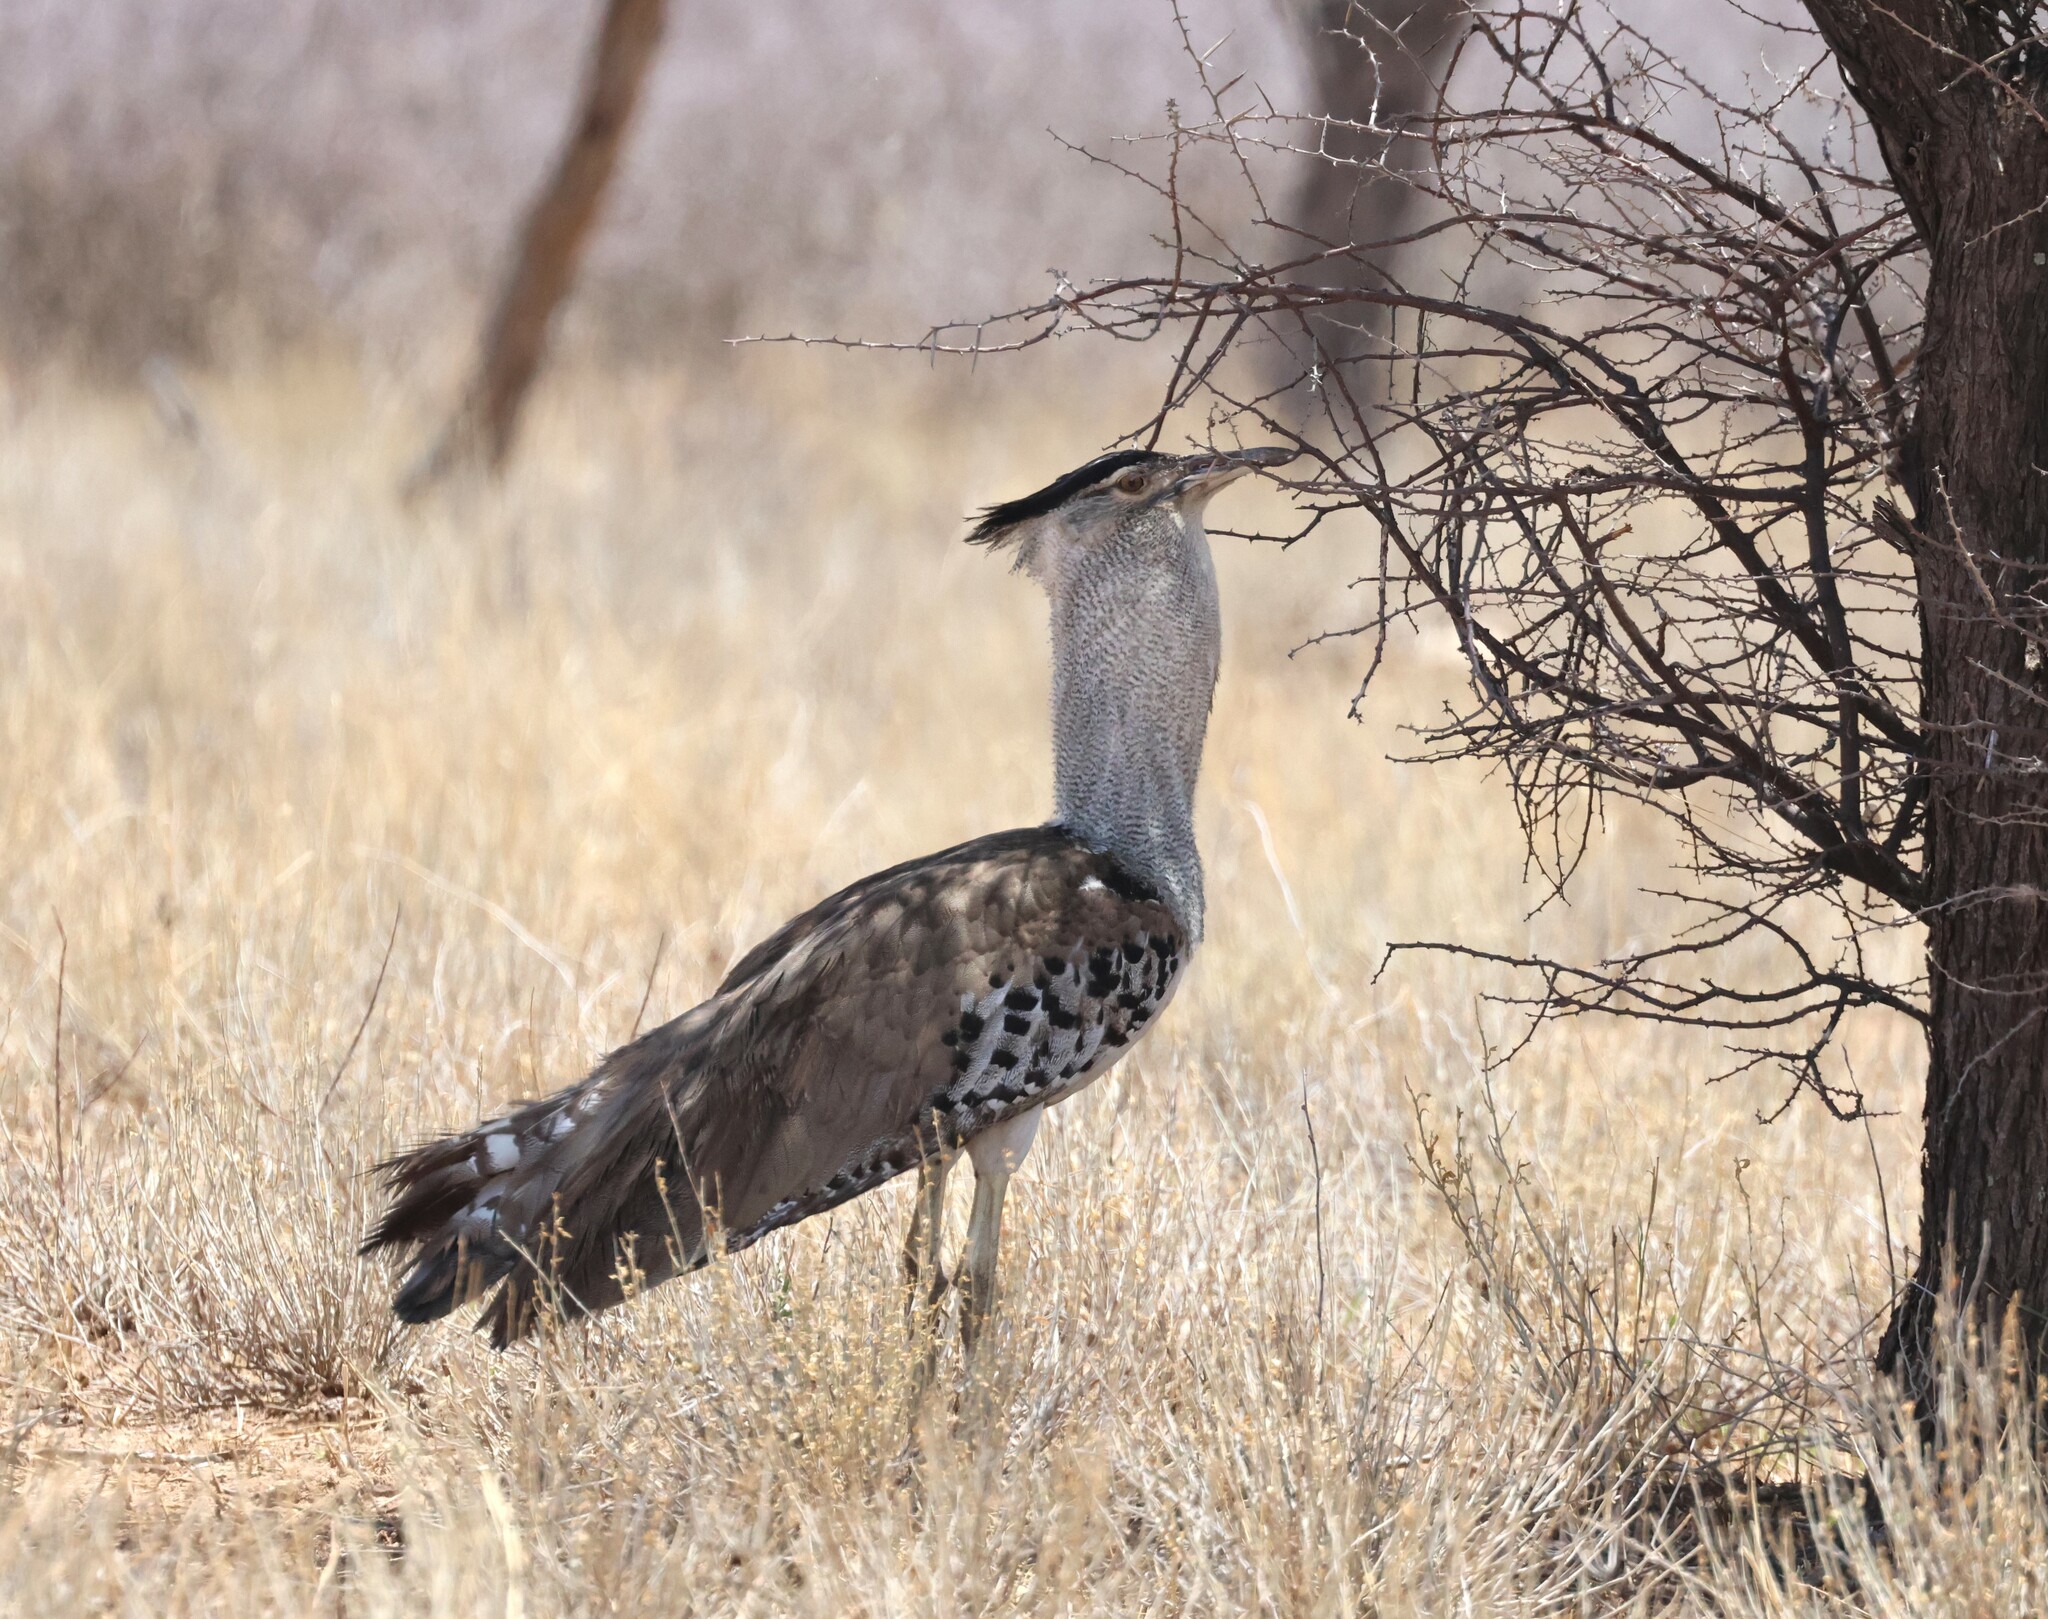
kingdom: Animalia
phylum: Chordata
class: Aves
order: Otidiformes
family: Otididae
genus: Ardeotis
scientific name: Ardeotis kori
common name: Kori bustard
